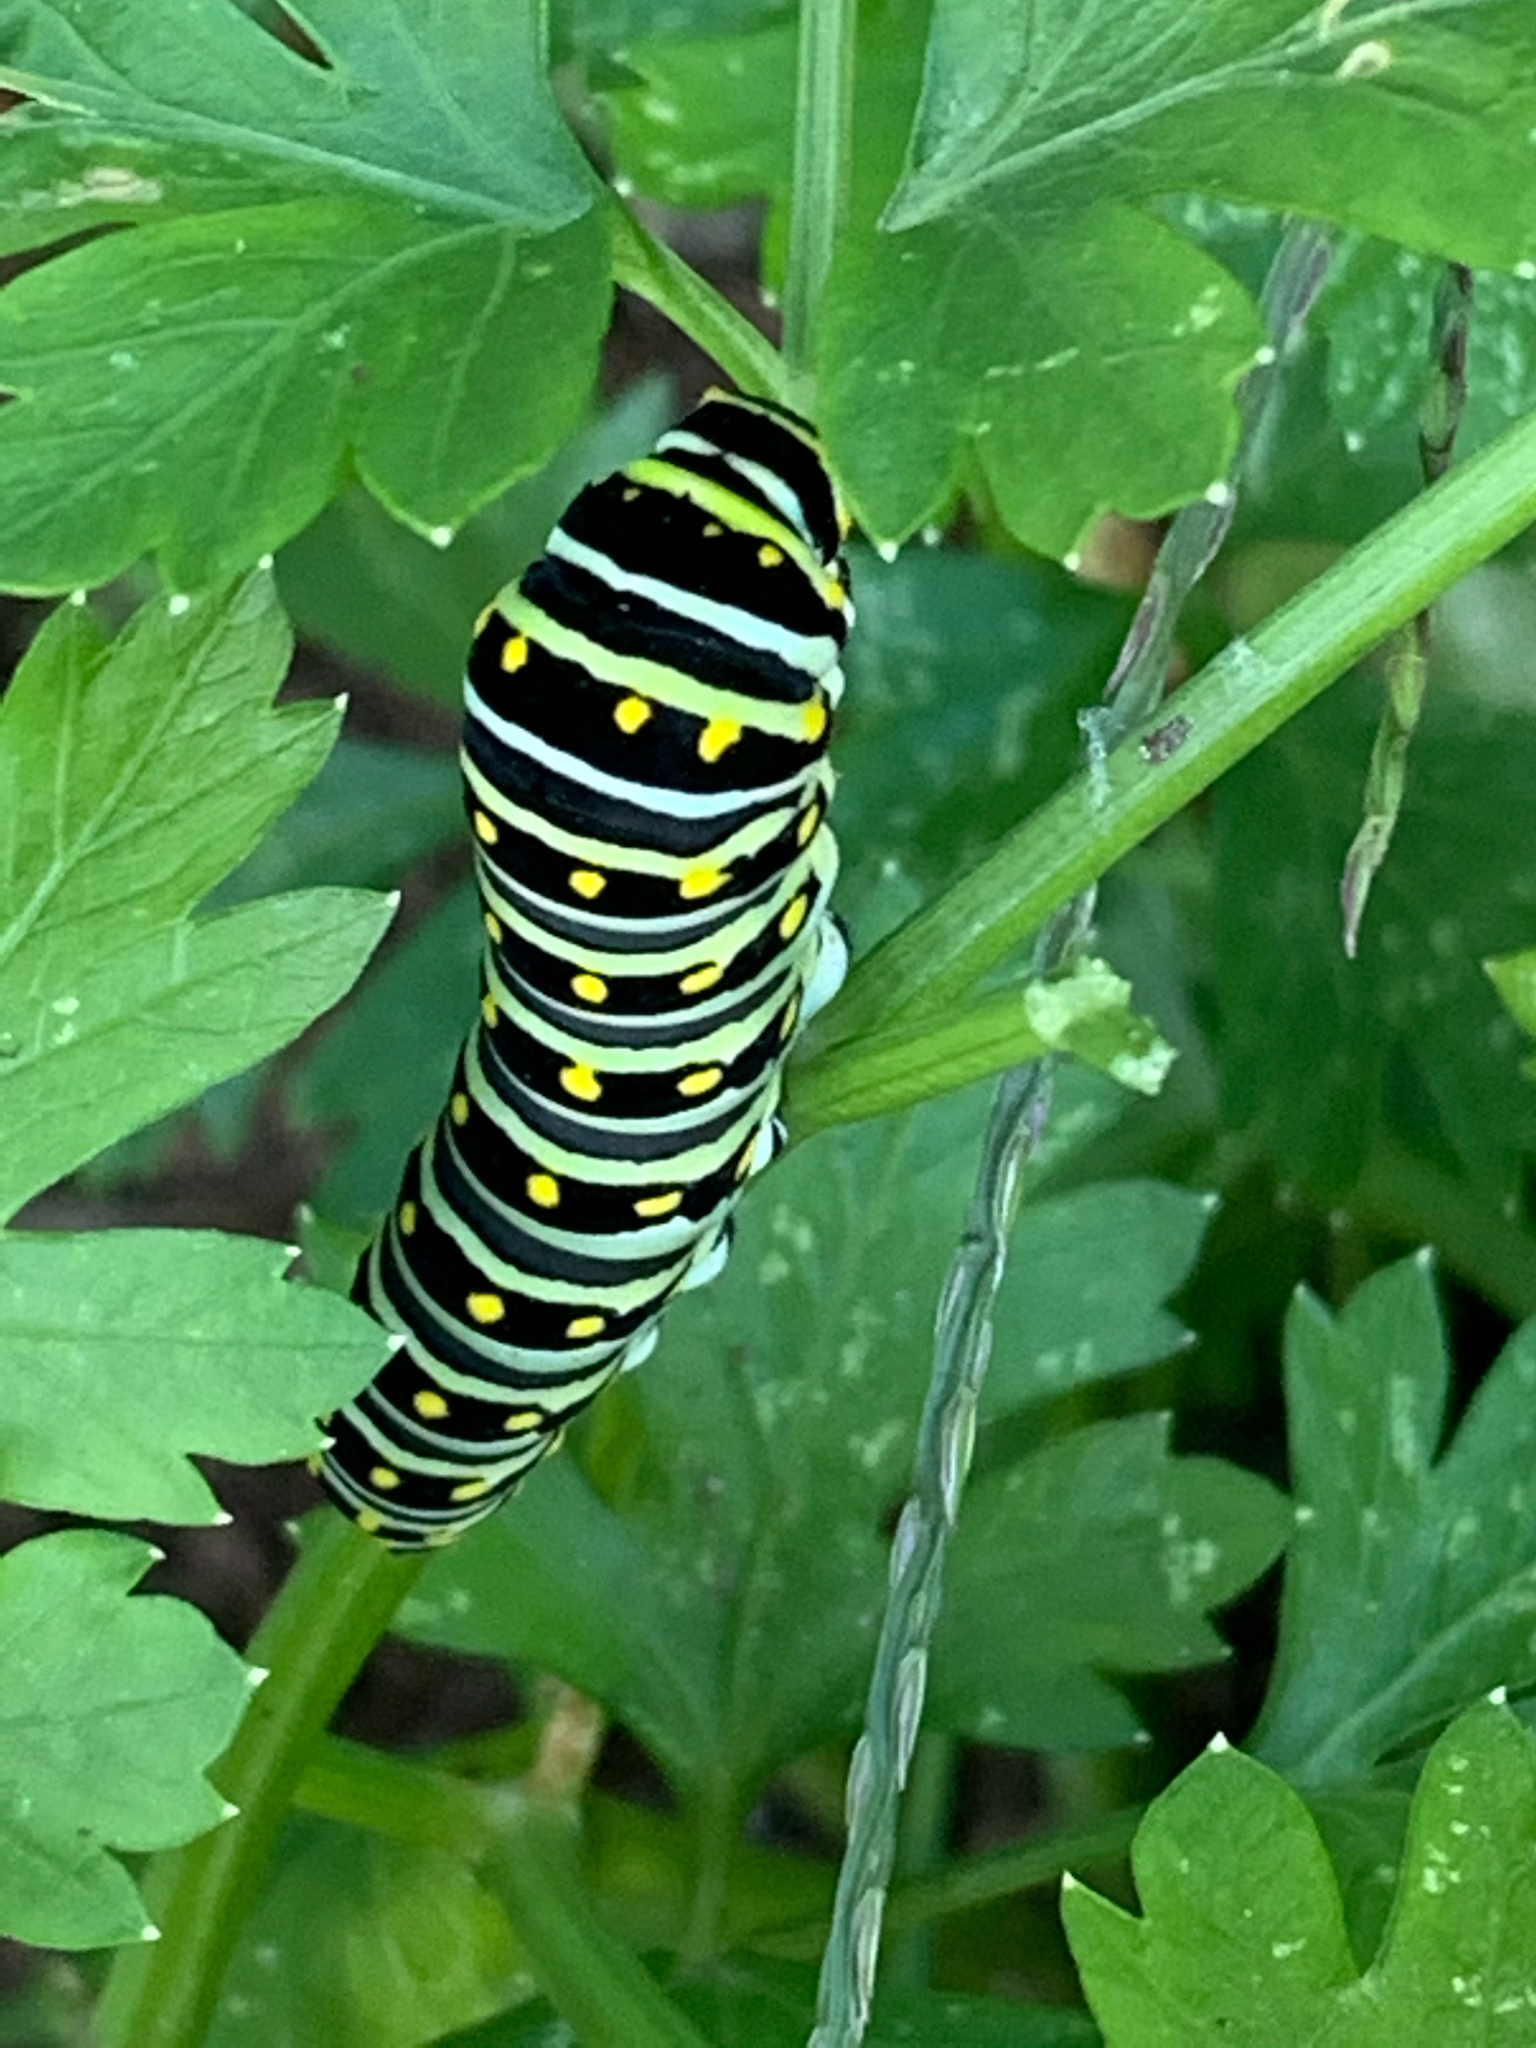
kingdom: Animalia
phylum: Arthropoda
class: Insecta
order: Lepidoptera
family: Papilionidae
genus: Papilio
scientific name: Papilio polyxenes
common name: Black swallowtail
